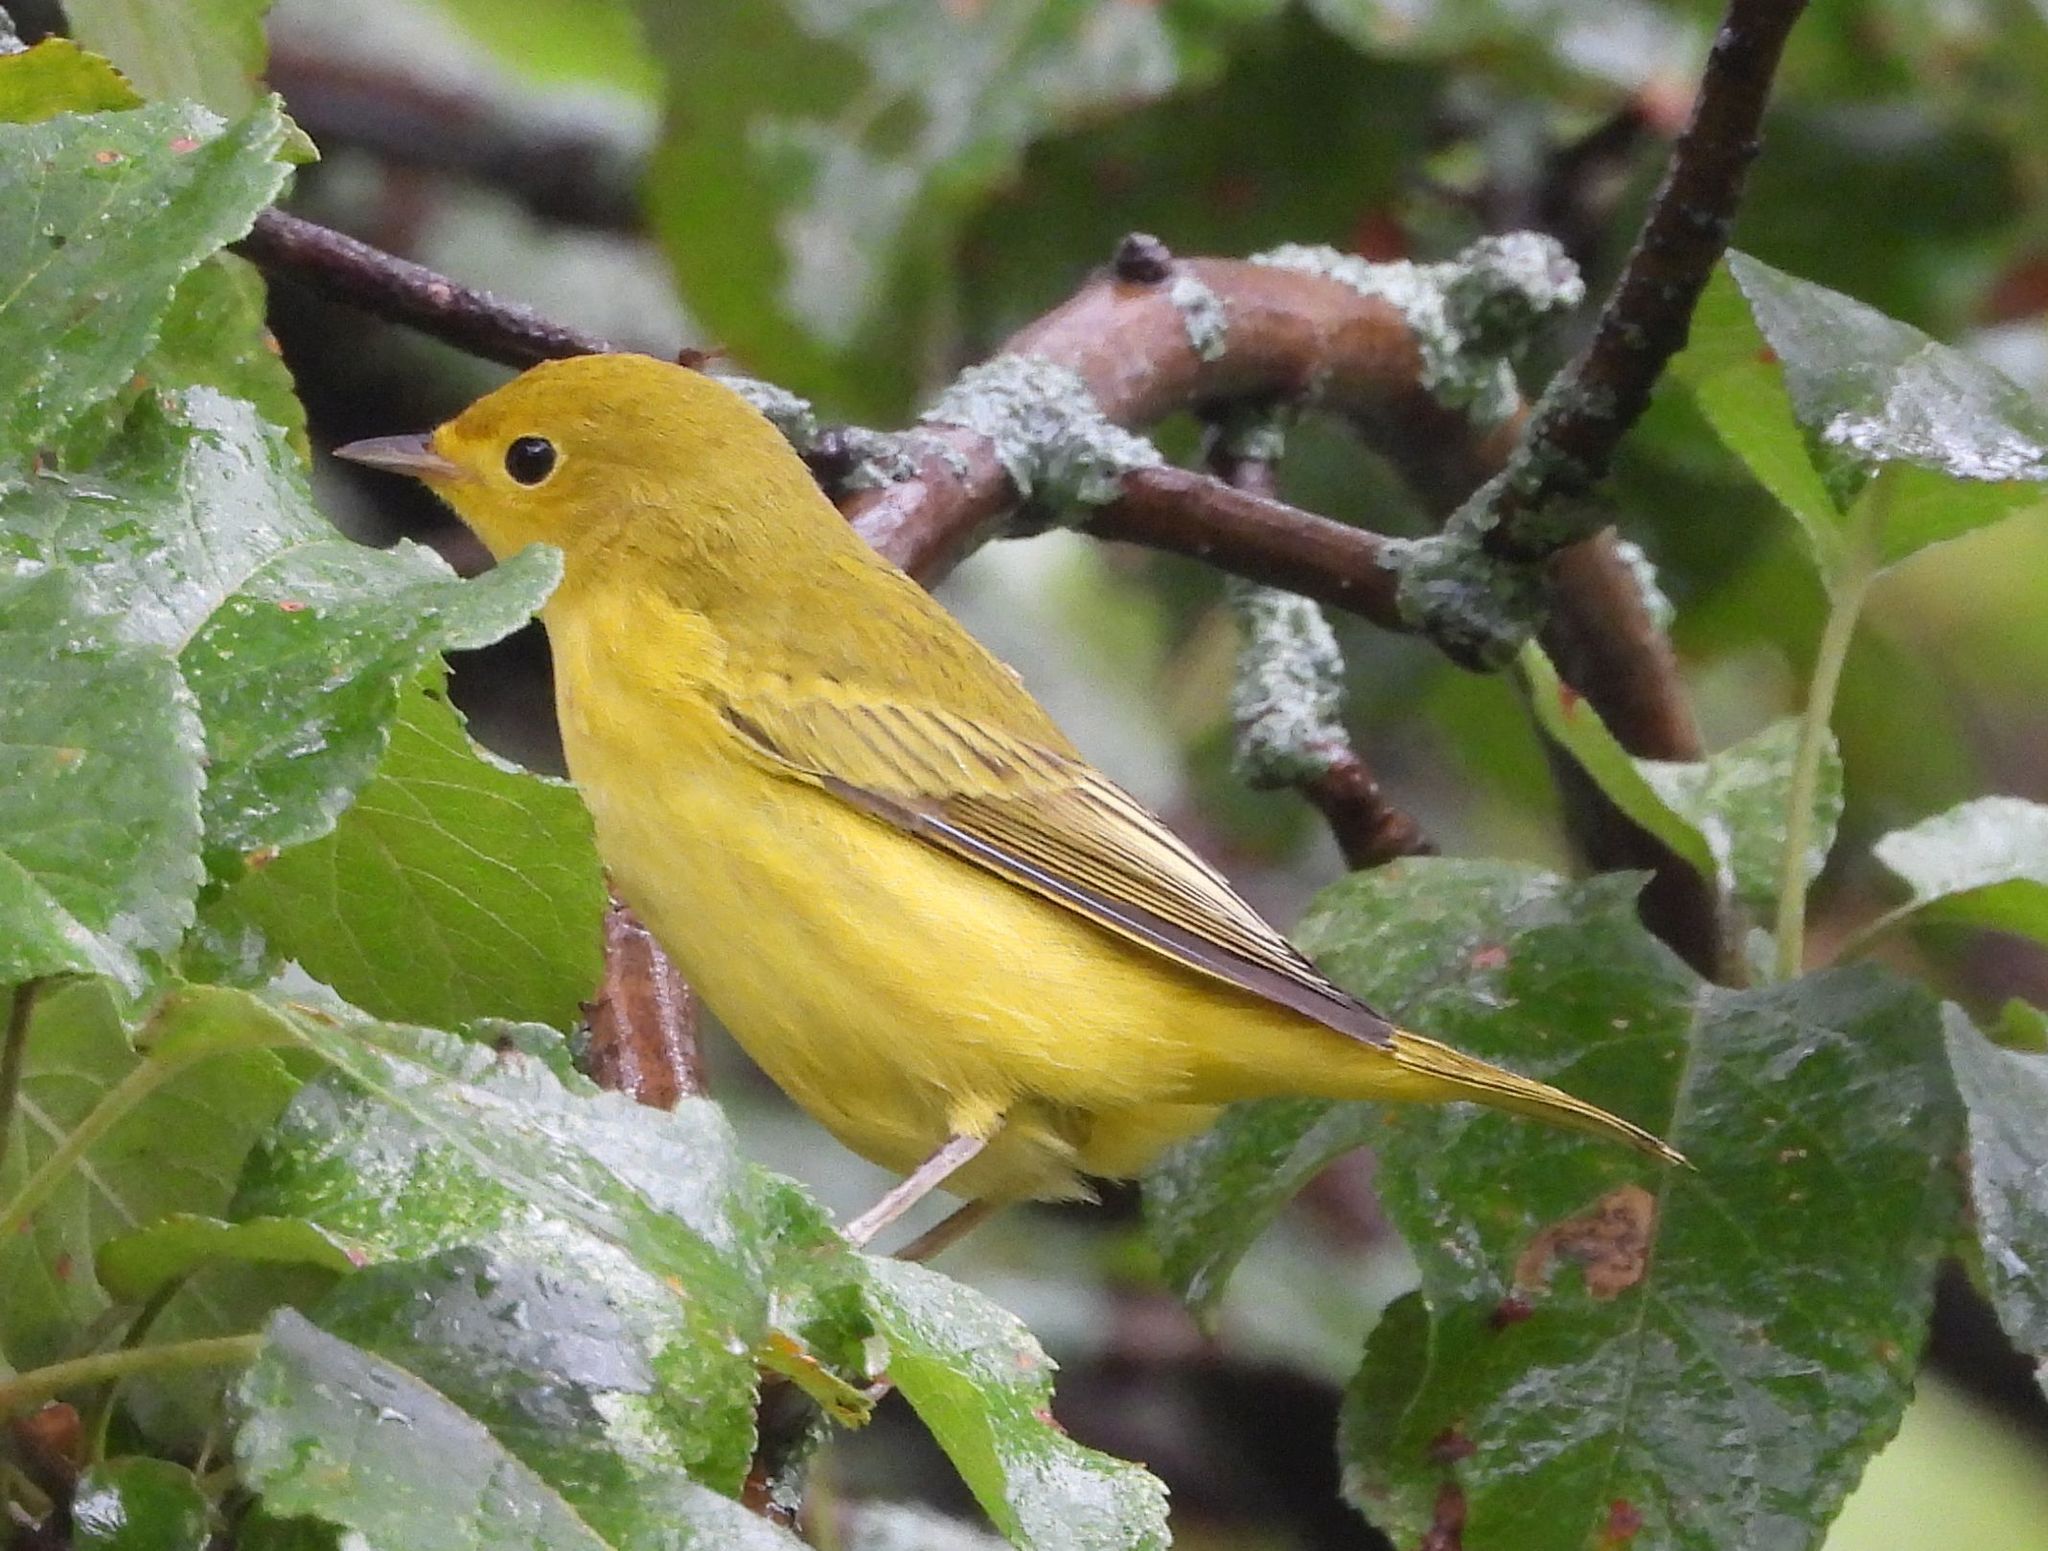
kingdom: Animalia
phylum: Chordata
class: Aves
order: Passeriformes
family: Parulidae
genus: Setophaga
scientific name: Setophaga petechia
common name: Yellow warbler
